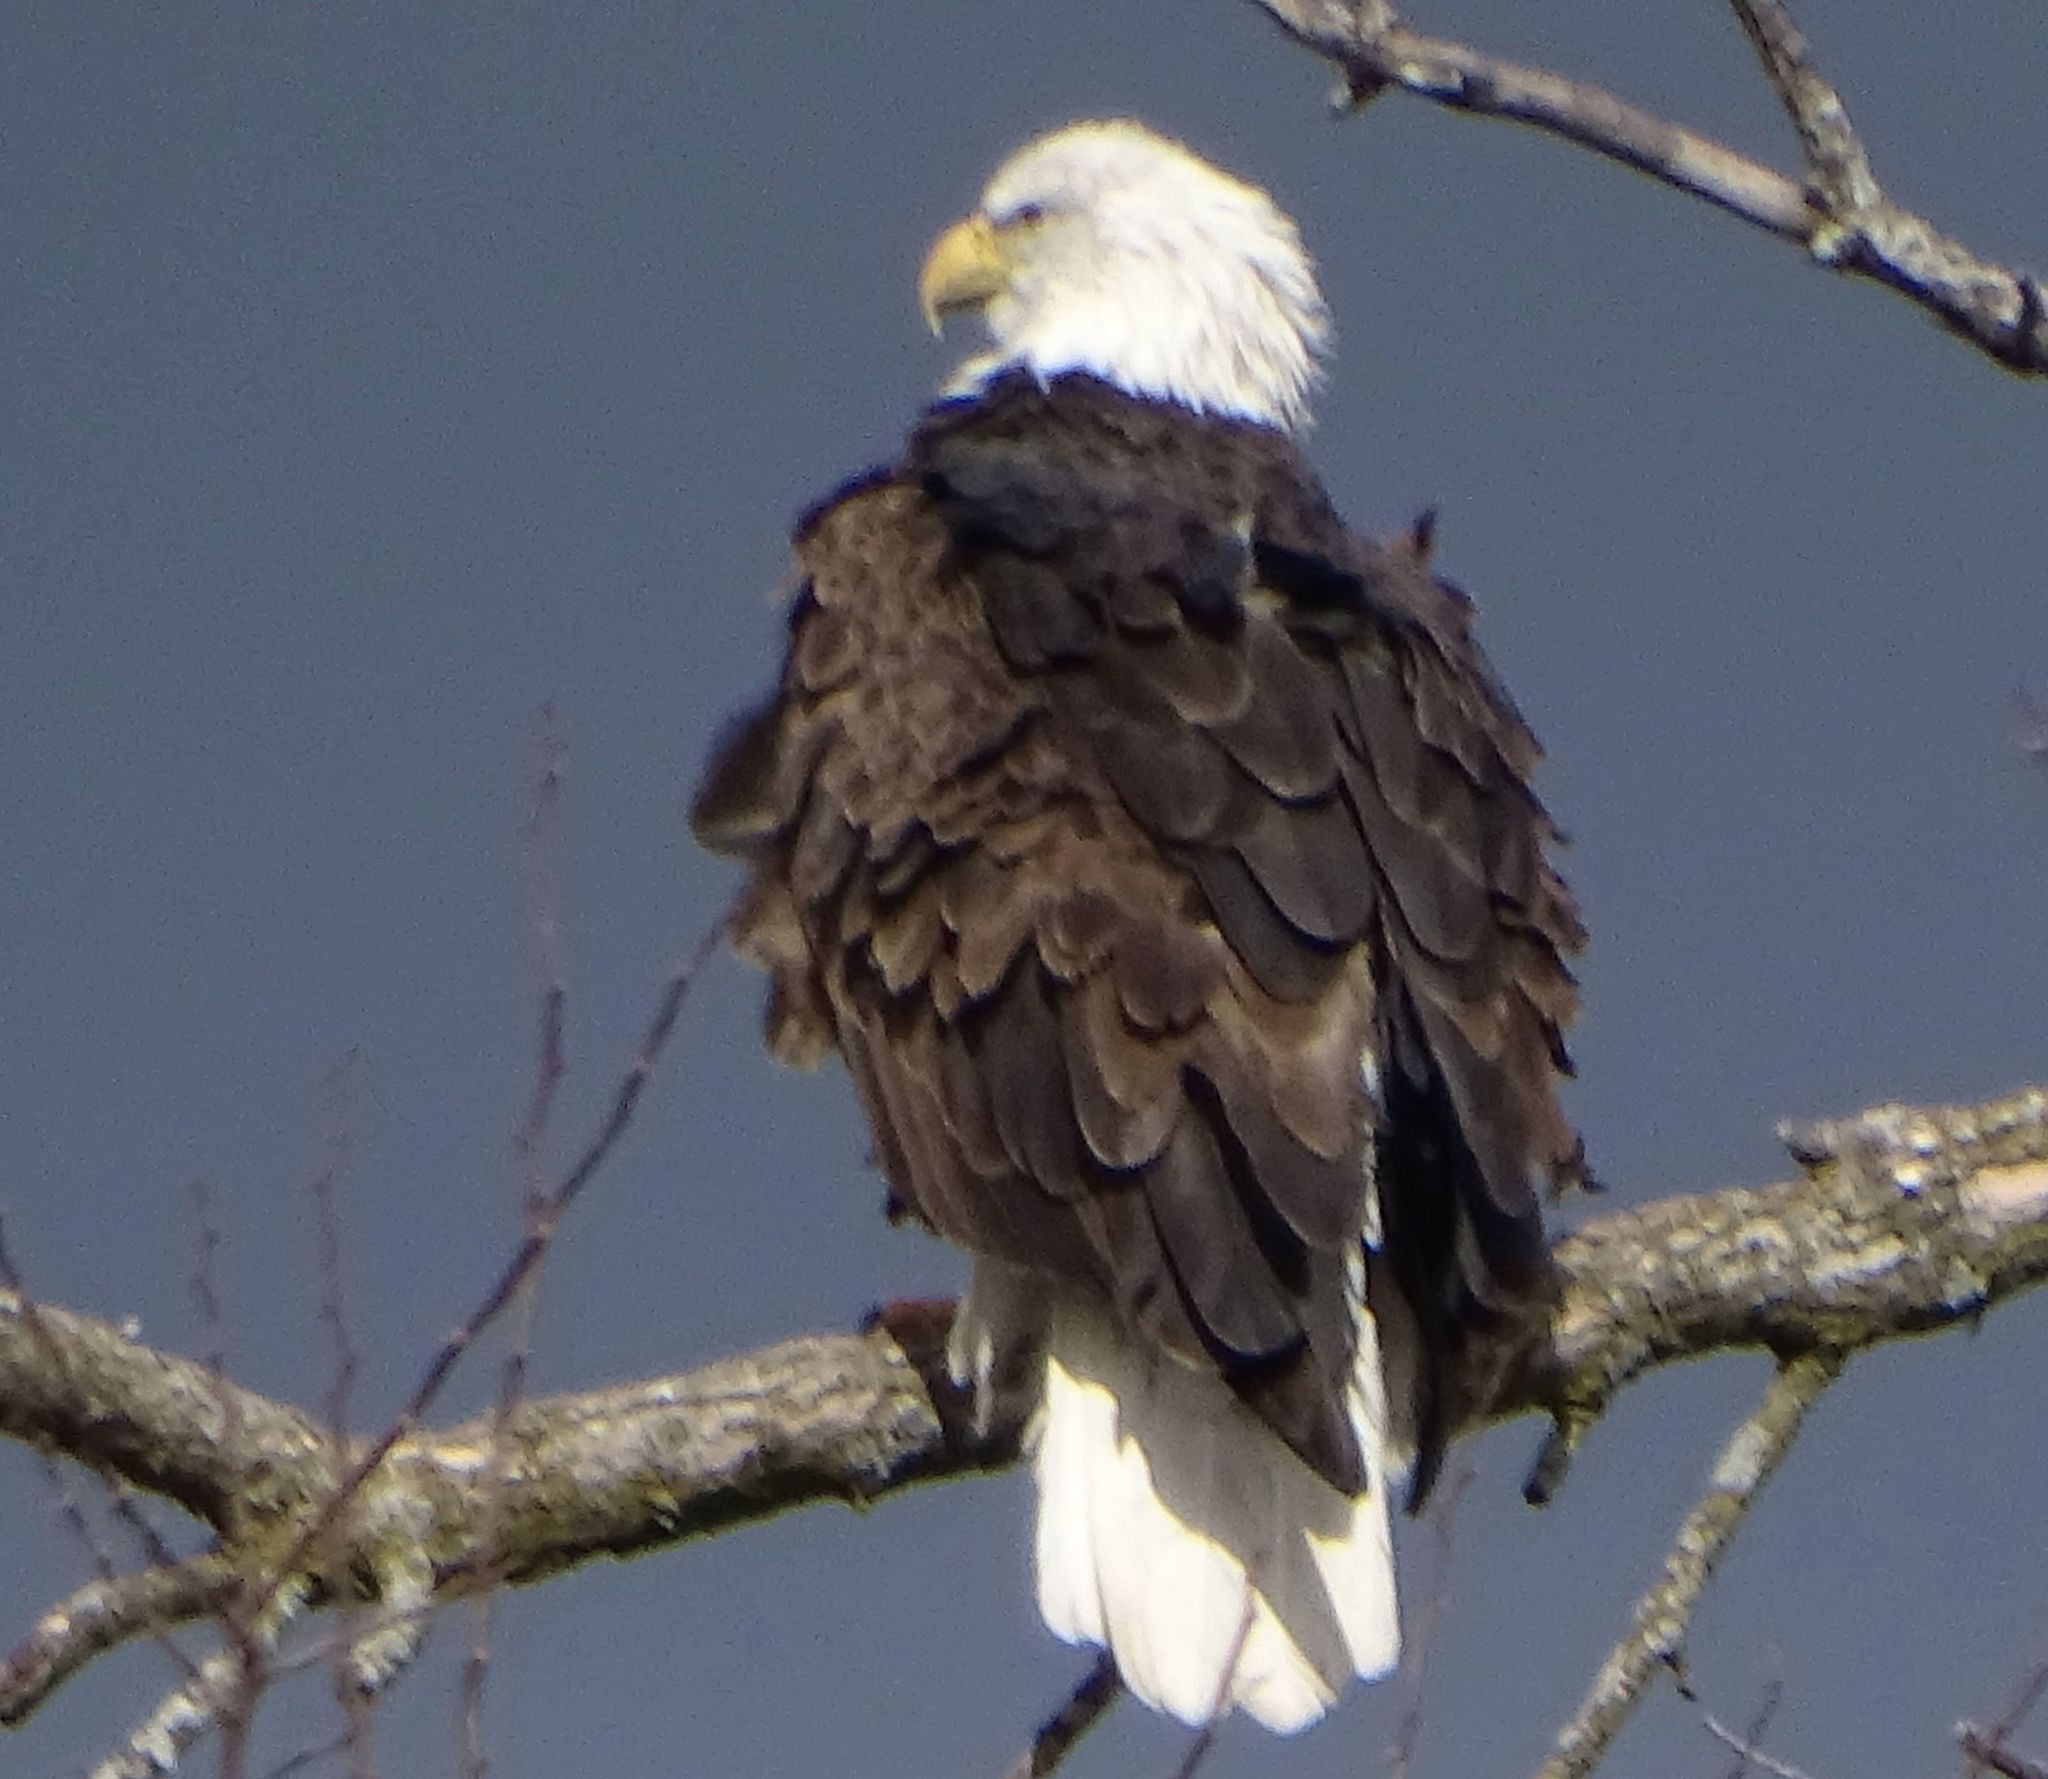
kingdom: Animalia
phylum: Chordata
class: Aves
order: Accipitriformes
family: Accipitridae
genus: Haliaeetus
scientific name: Haliaeetus leucocephalus
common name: Bald eagle
